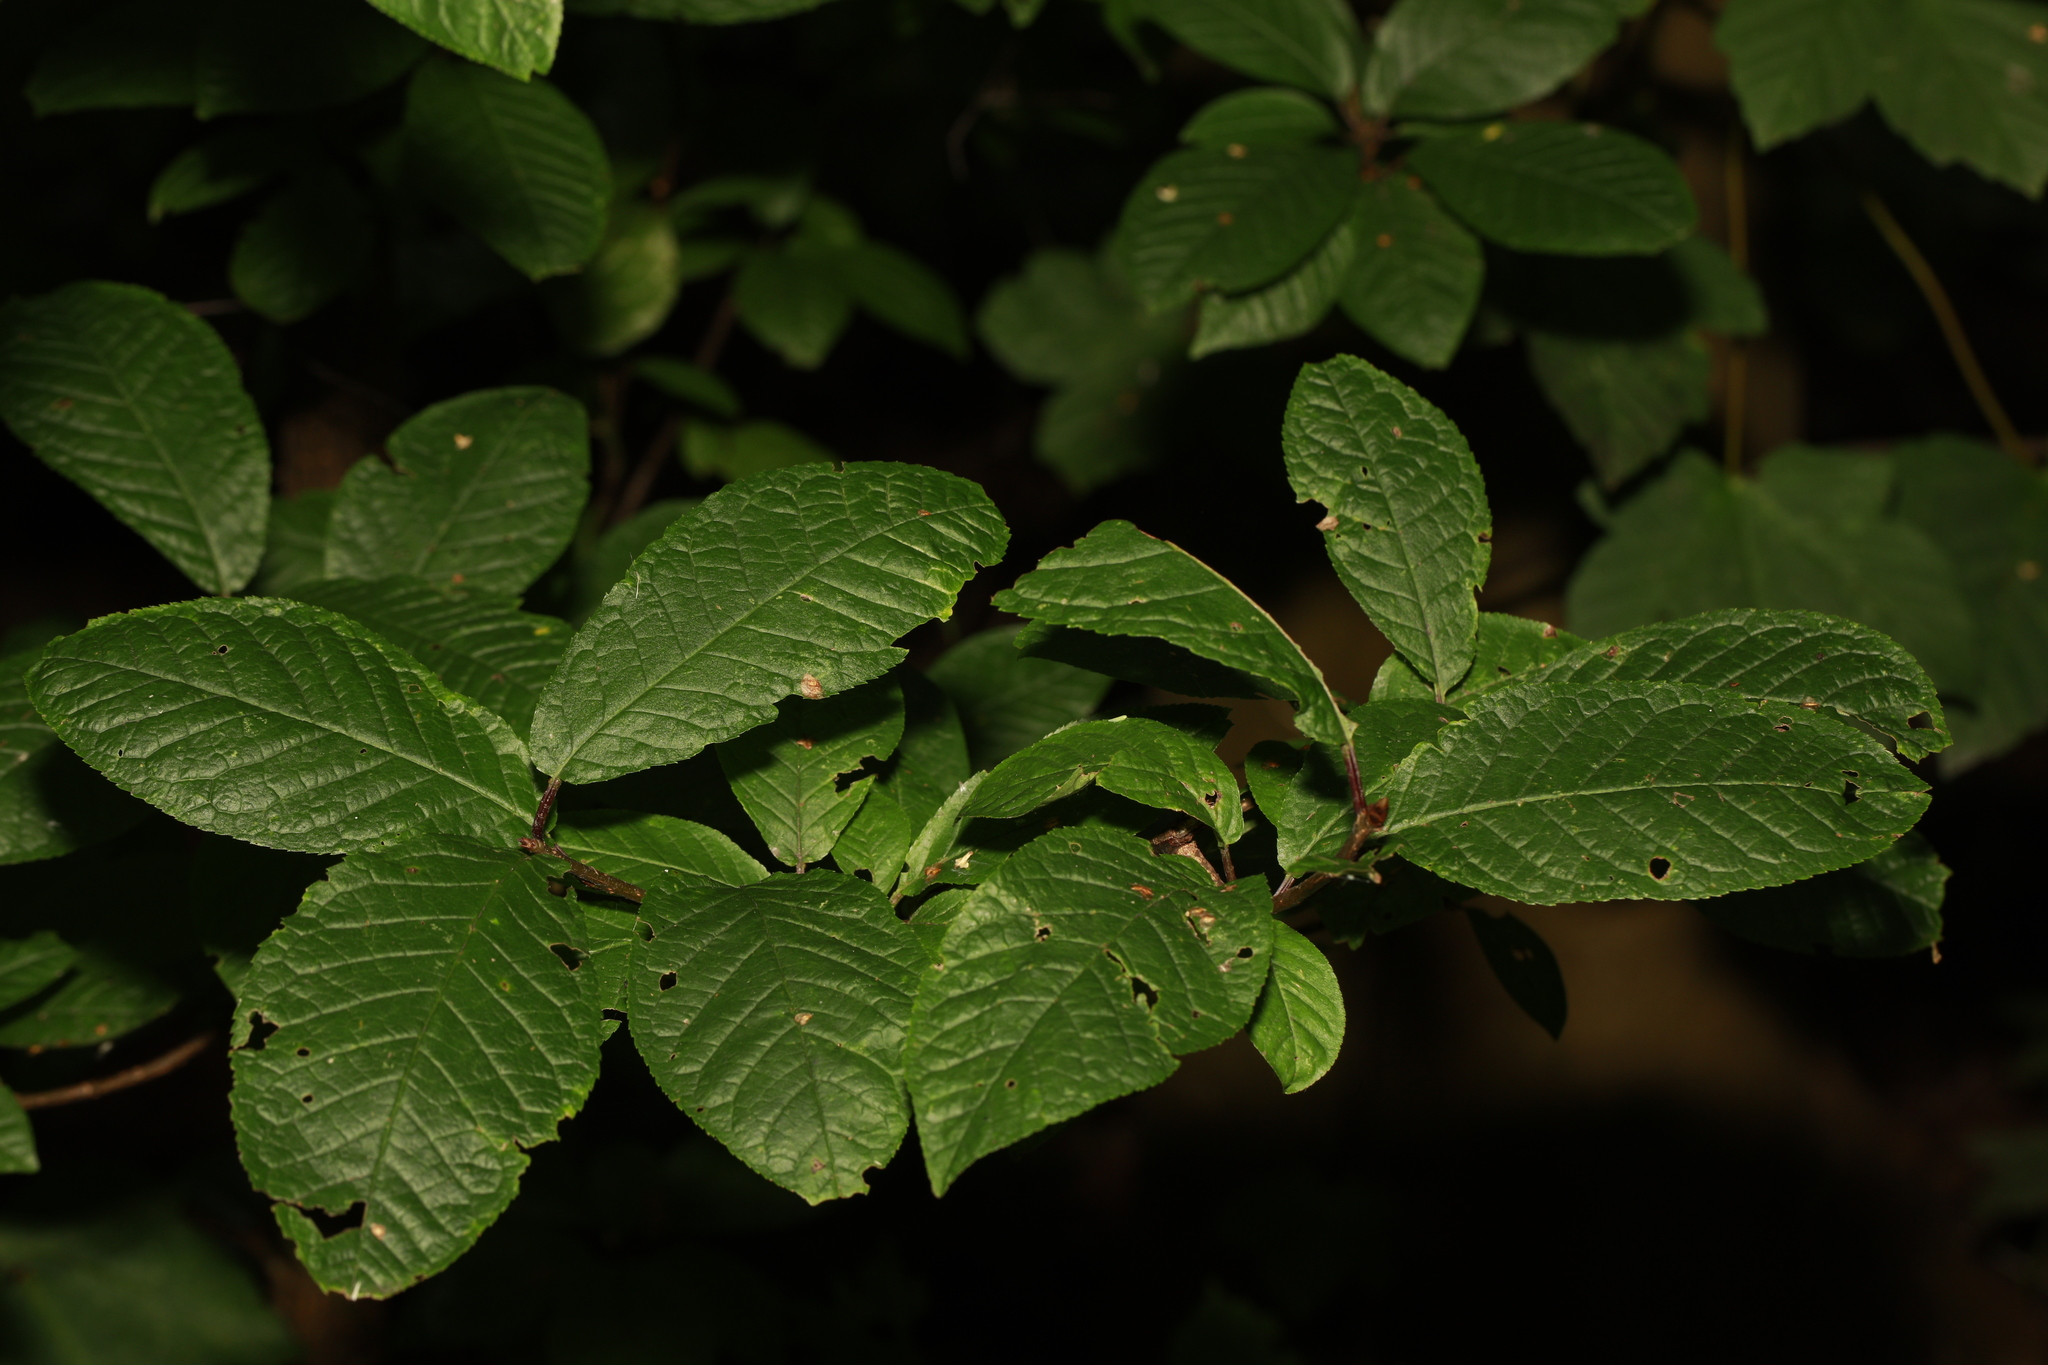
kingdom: Plantae
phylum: Tracheophyta
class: Magnoliopsida
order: Rosales
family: Rosaceae
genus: Prunus
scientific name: Prunus padus
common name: Bird cherry
